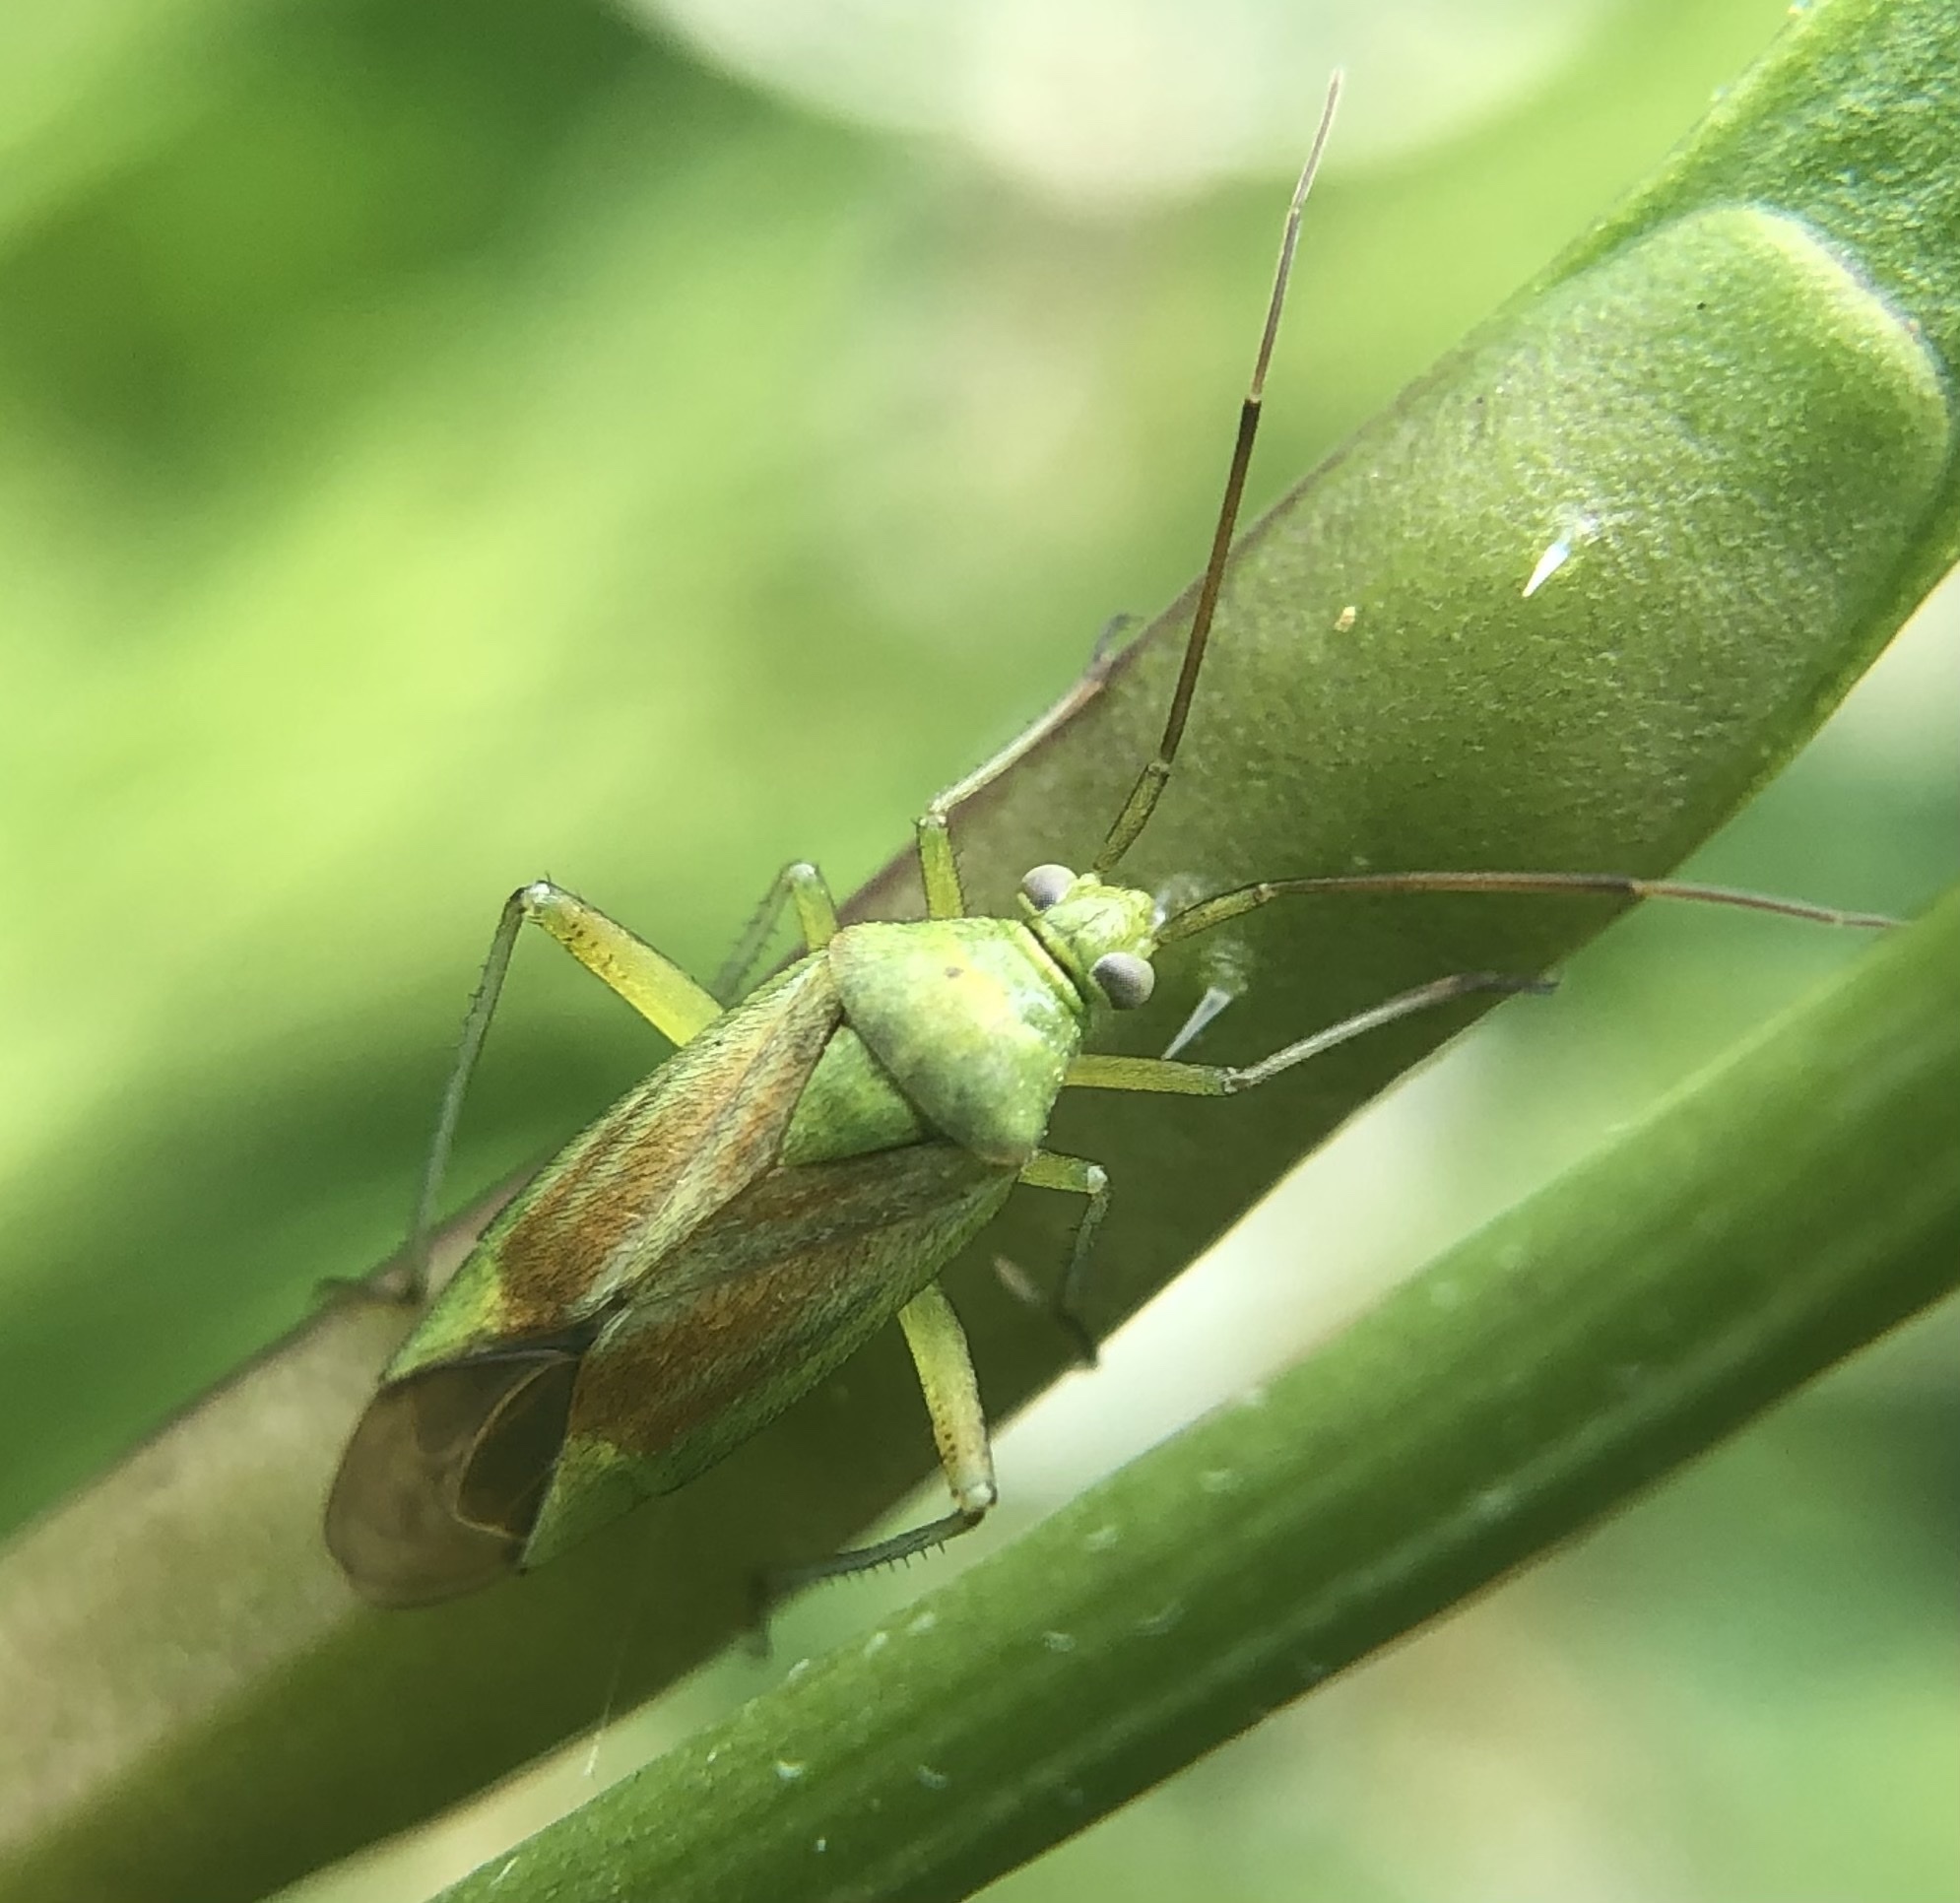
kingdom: Animalia
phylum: Arthropoda
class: Insecta
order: Hemiptera
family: Miridae
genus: Closterotomus
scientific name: Closterotomus norvegicus
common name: Plant bug
